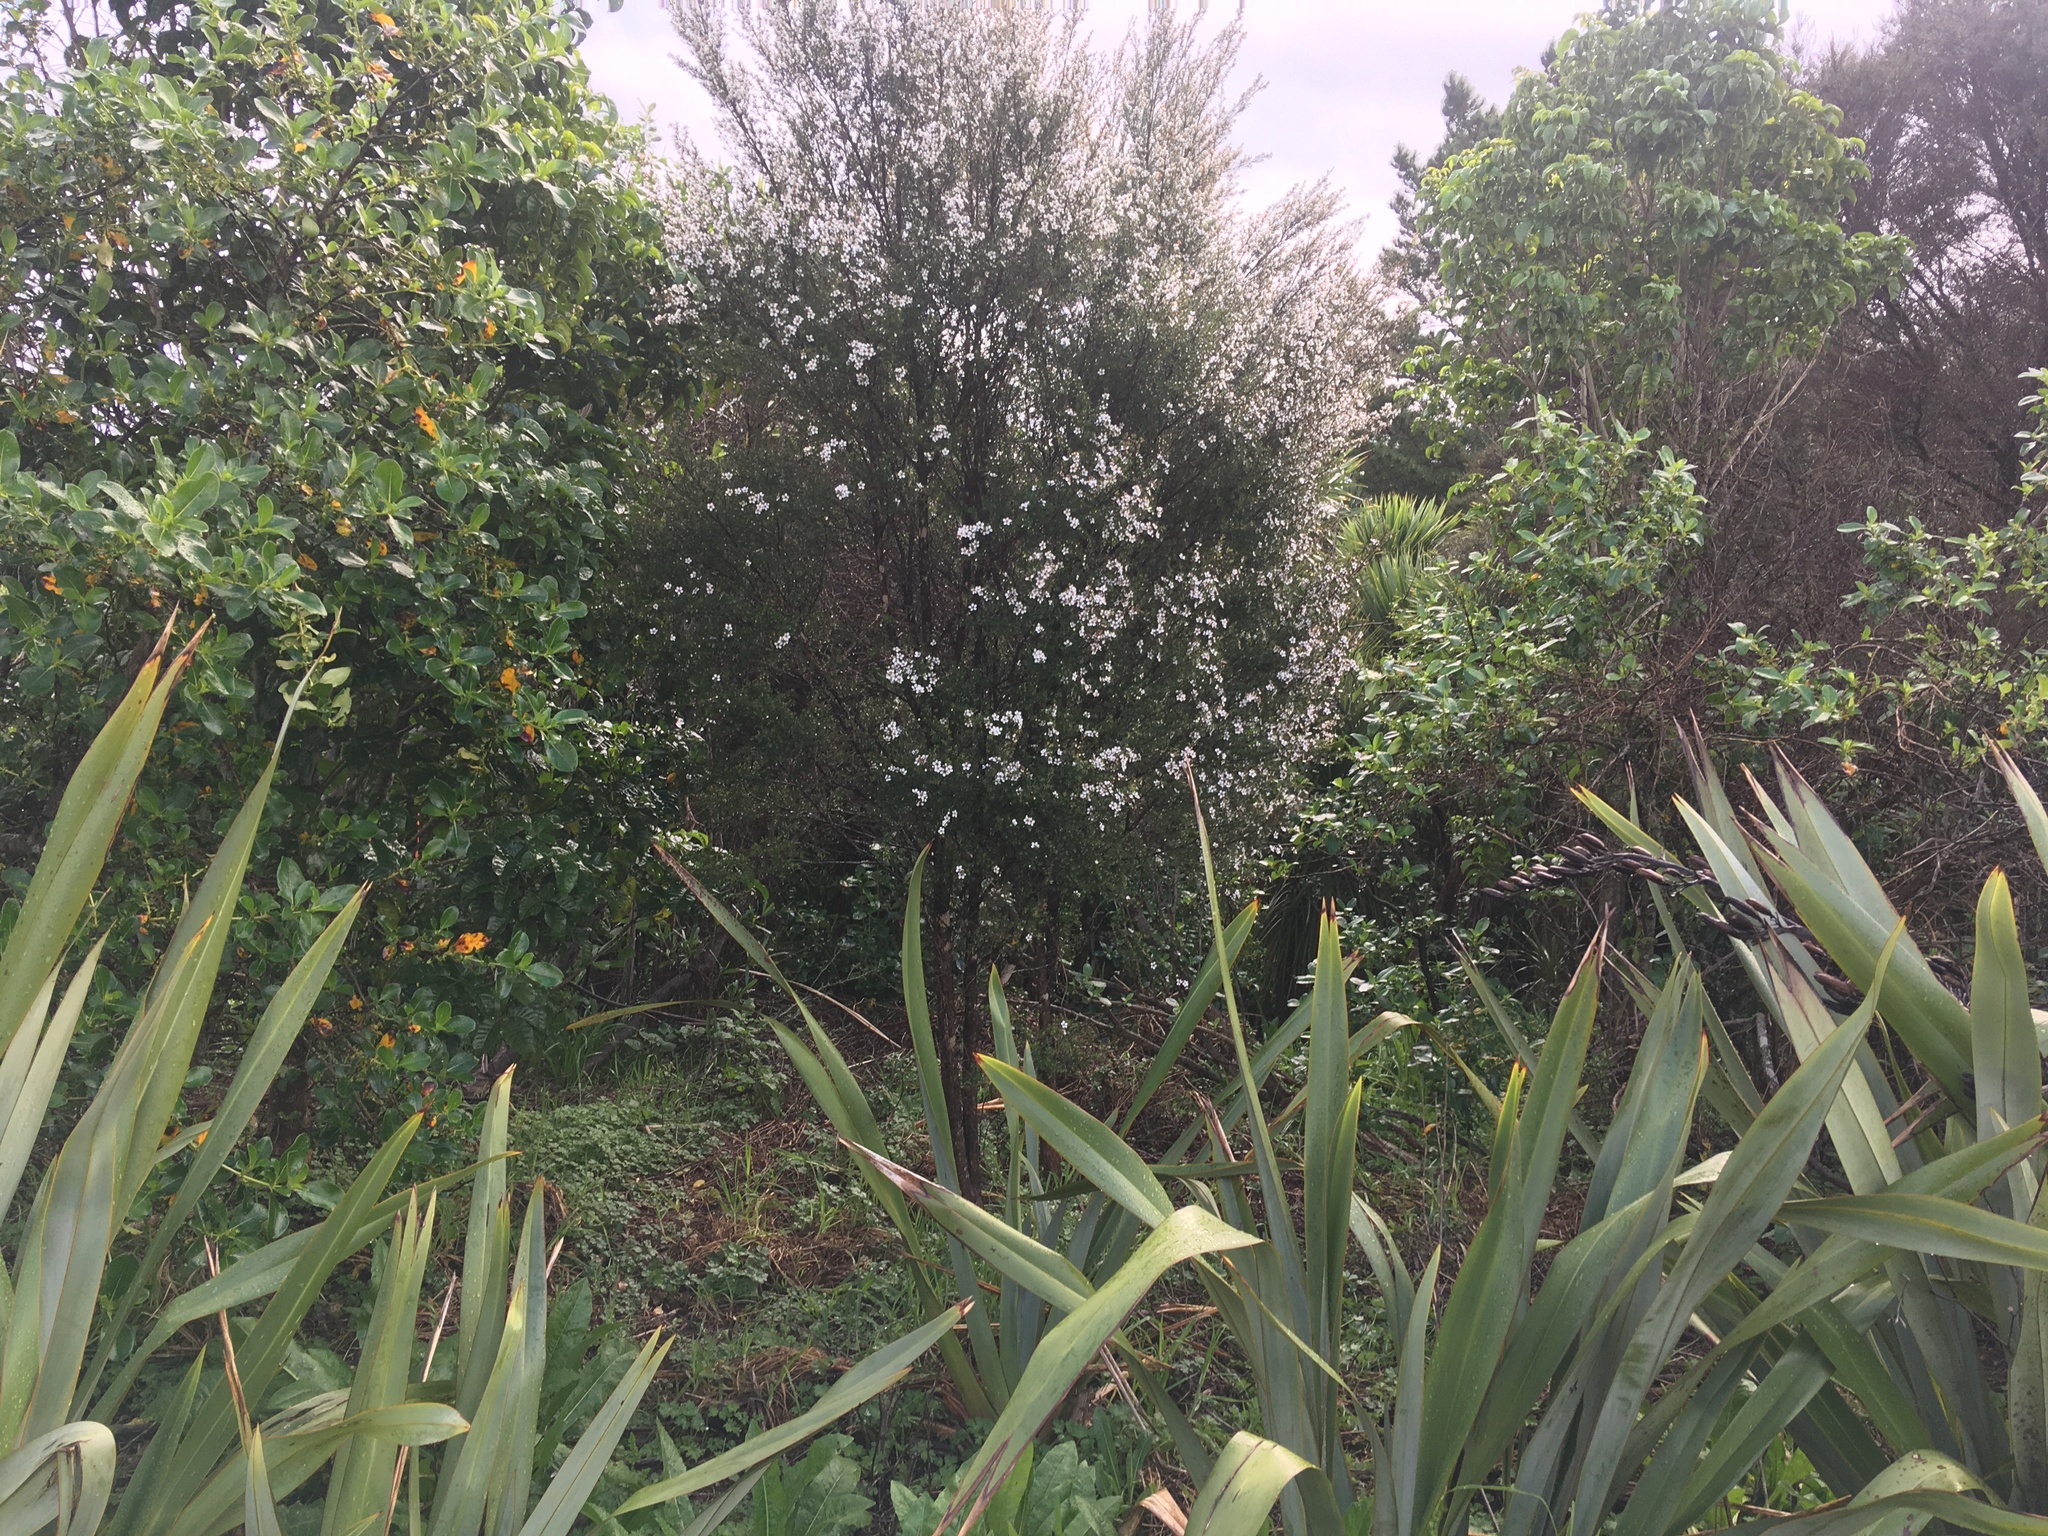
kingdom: Plantae
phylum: Tracheophyta
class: Magnoliopsida
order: Myrtales
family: Myrtaceae
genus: Leptospermum
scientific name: Leptospermum scoparium
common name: Broom tea-tree
